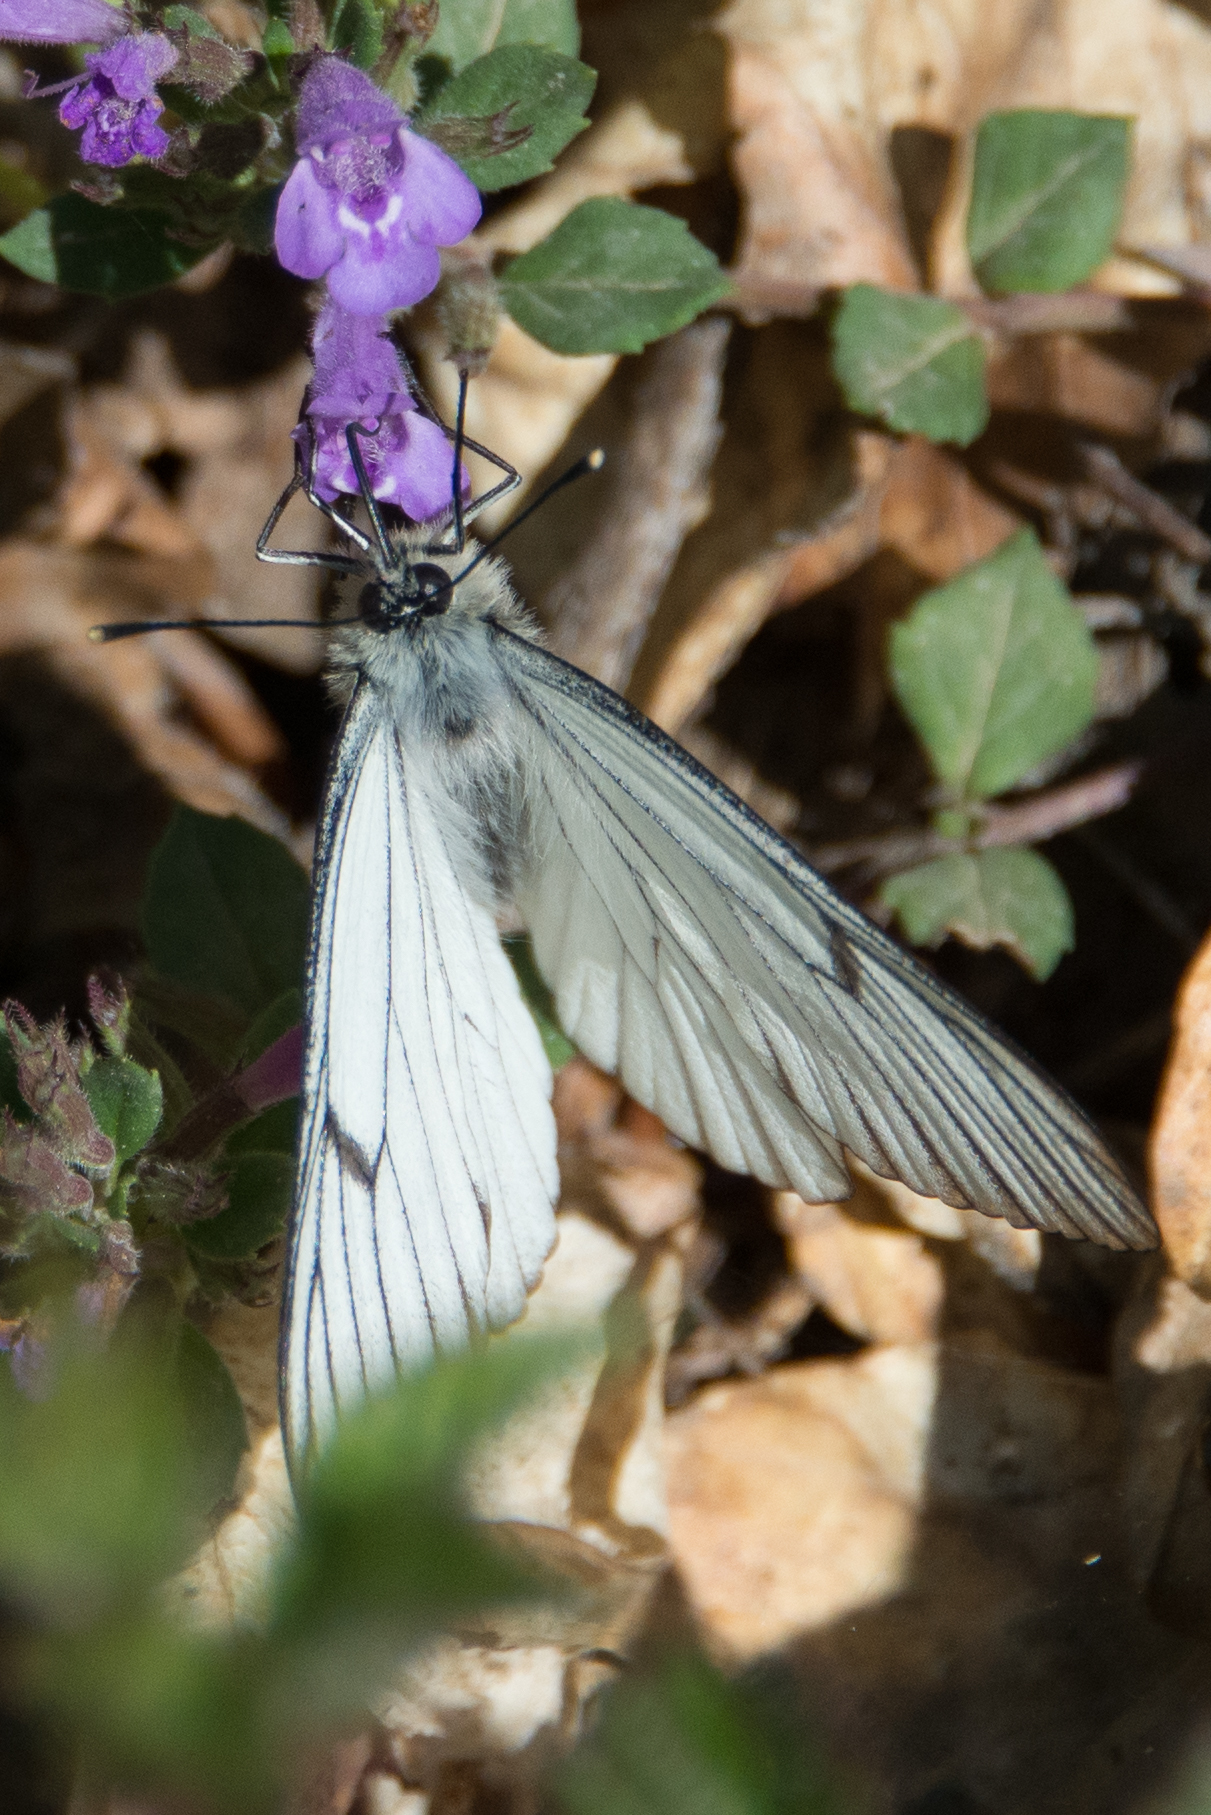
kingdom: Animalia
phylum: Arthropoda
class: Insecta
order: Lepidoptera
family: Papilionidae
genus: Parnassius
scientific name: Parnassius mnemosyne
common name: Clouded apollo
